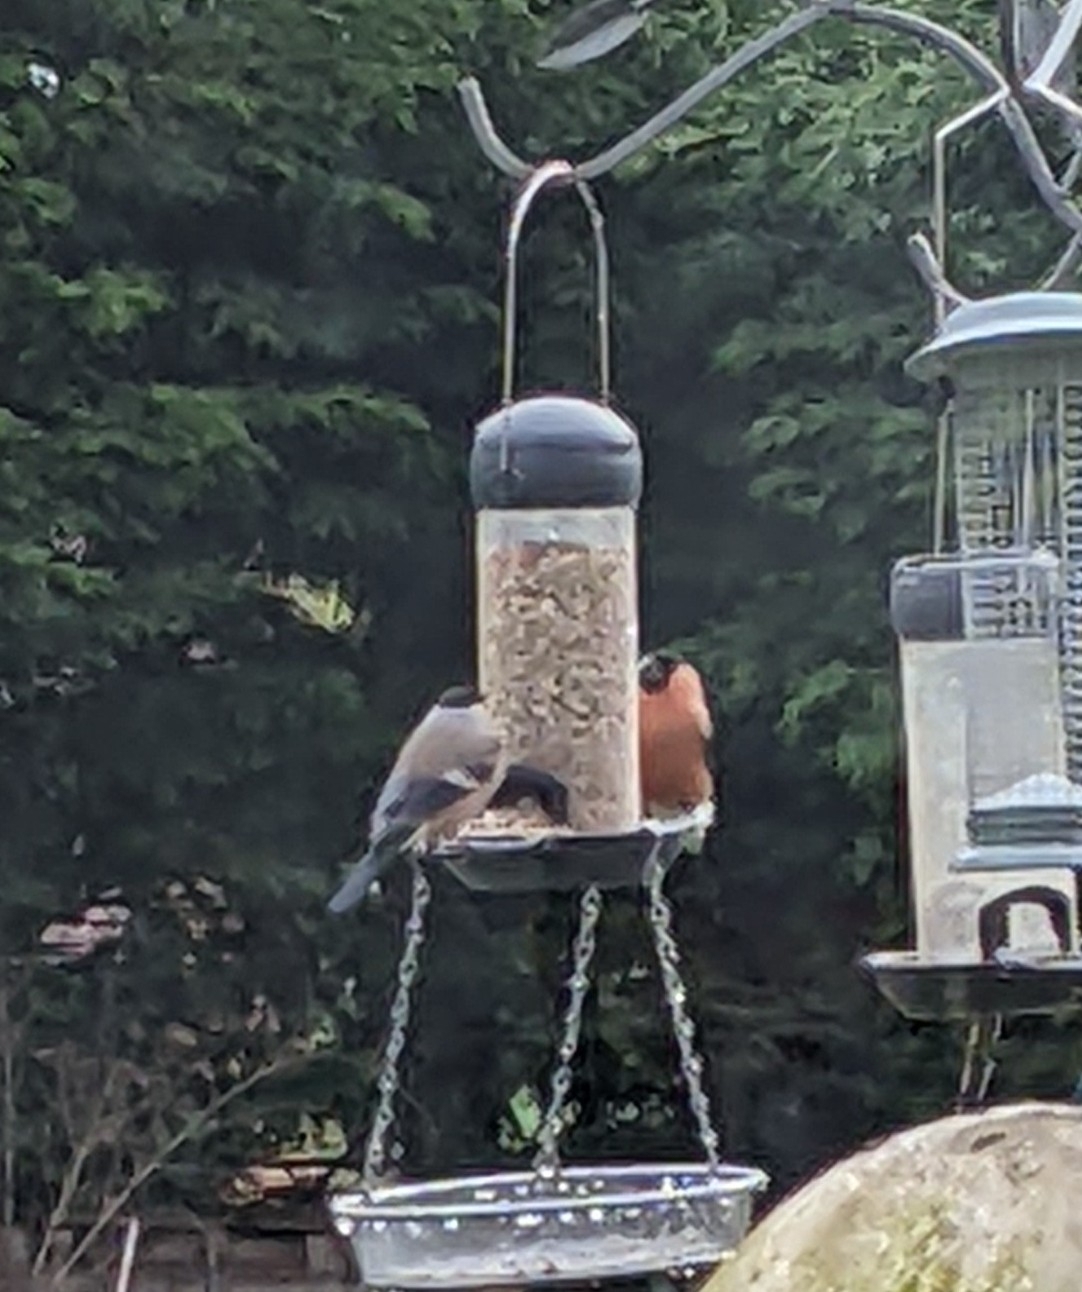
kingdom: Animalia
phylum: Chordata
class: Aves
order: Passeriformes
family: Fringillidae
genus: Pyrrhula
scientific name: Pyrrhula pyrrhula
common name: Eurasian bullfinch
